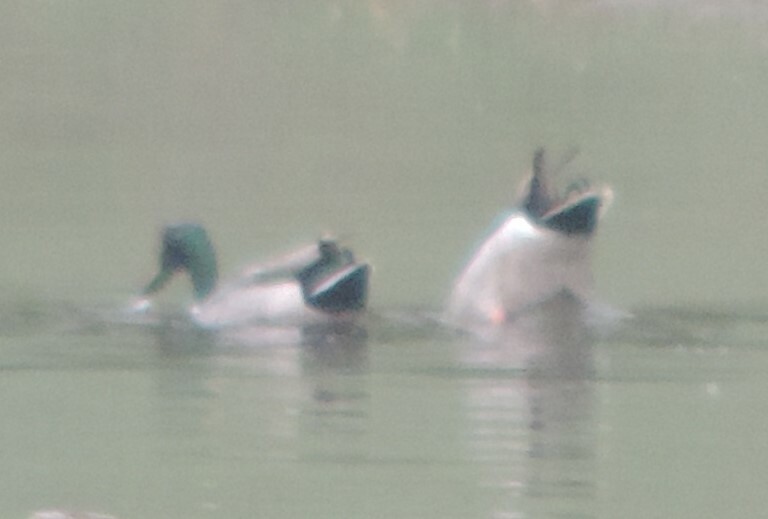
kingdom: Animalia
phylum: Chordata
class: Aves
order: Anseriformes
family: Anatidae
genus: Anas
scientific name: Anas platyrhynchos
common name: Mallard
